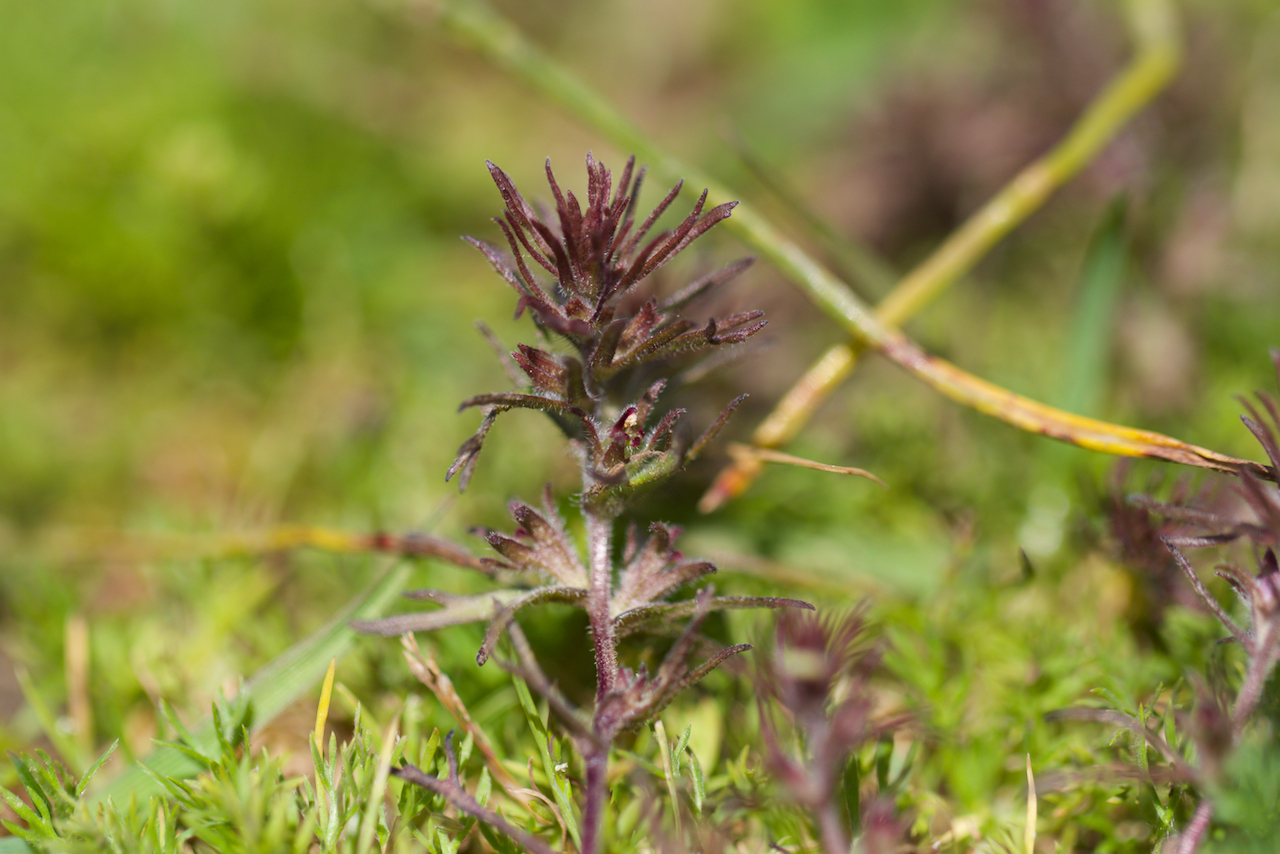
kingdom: Plantae
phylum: Tracheophyta
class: Magnoliopsida
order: Lamiales
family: Orobanchaceae
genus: Triphysaria
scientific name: Triphysaria pusilla
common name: Dwarf false owl-clover
